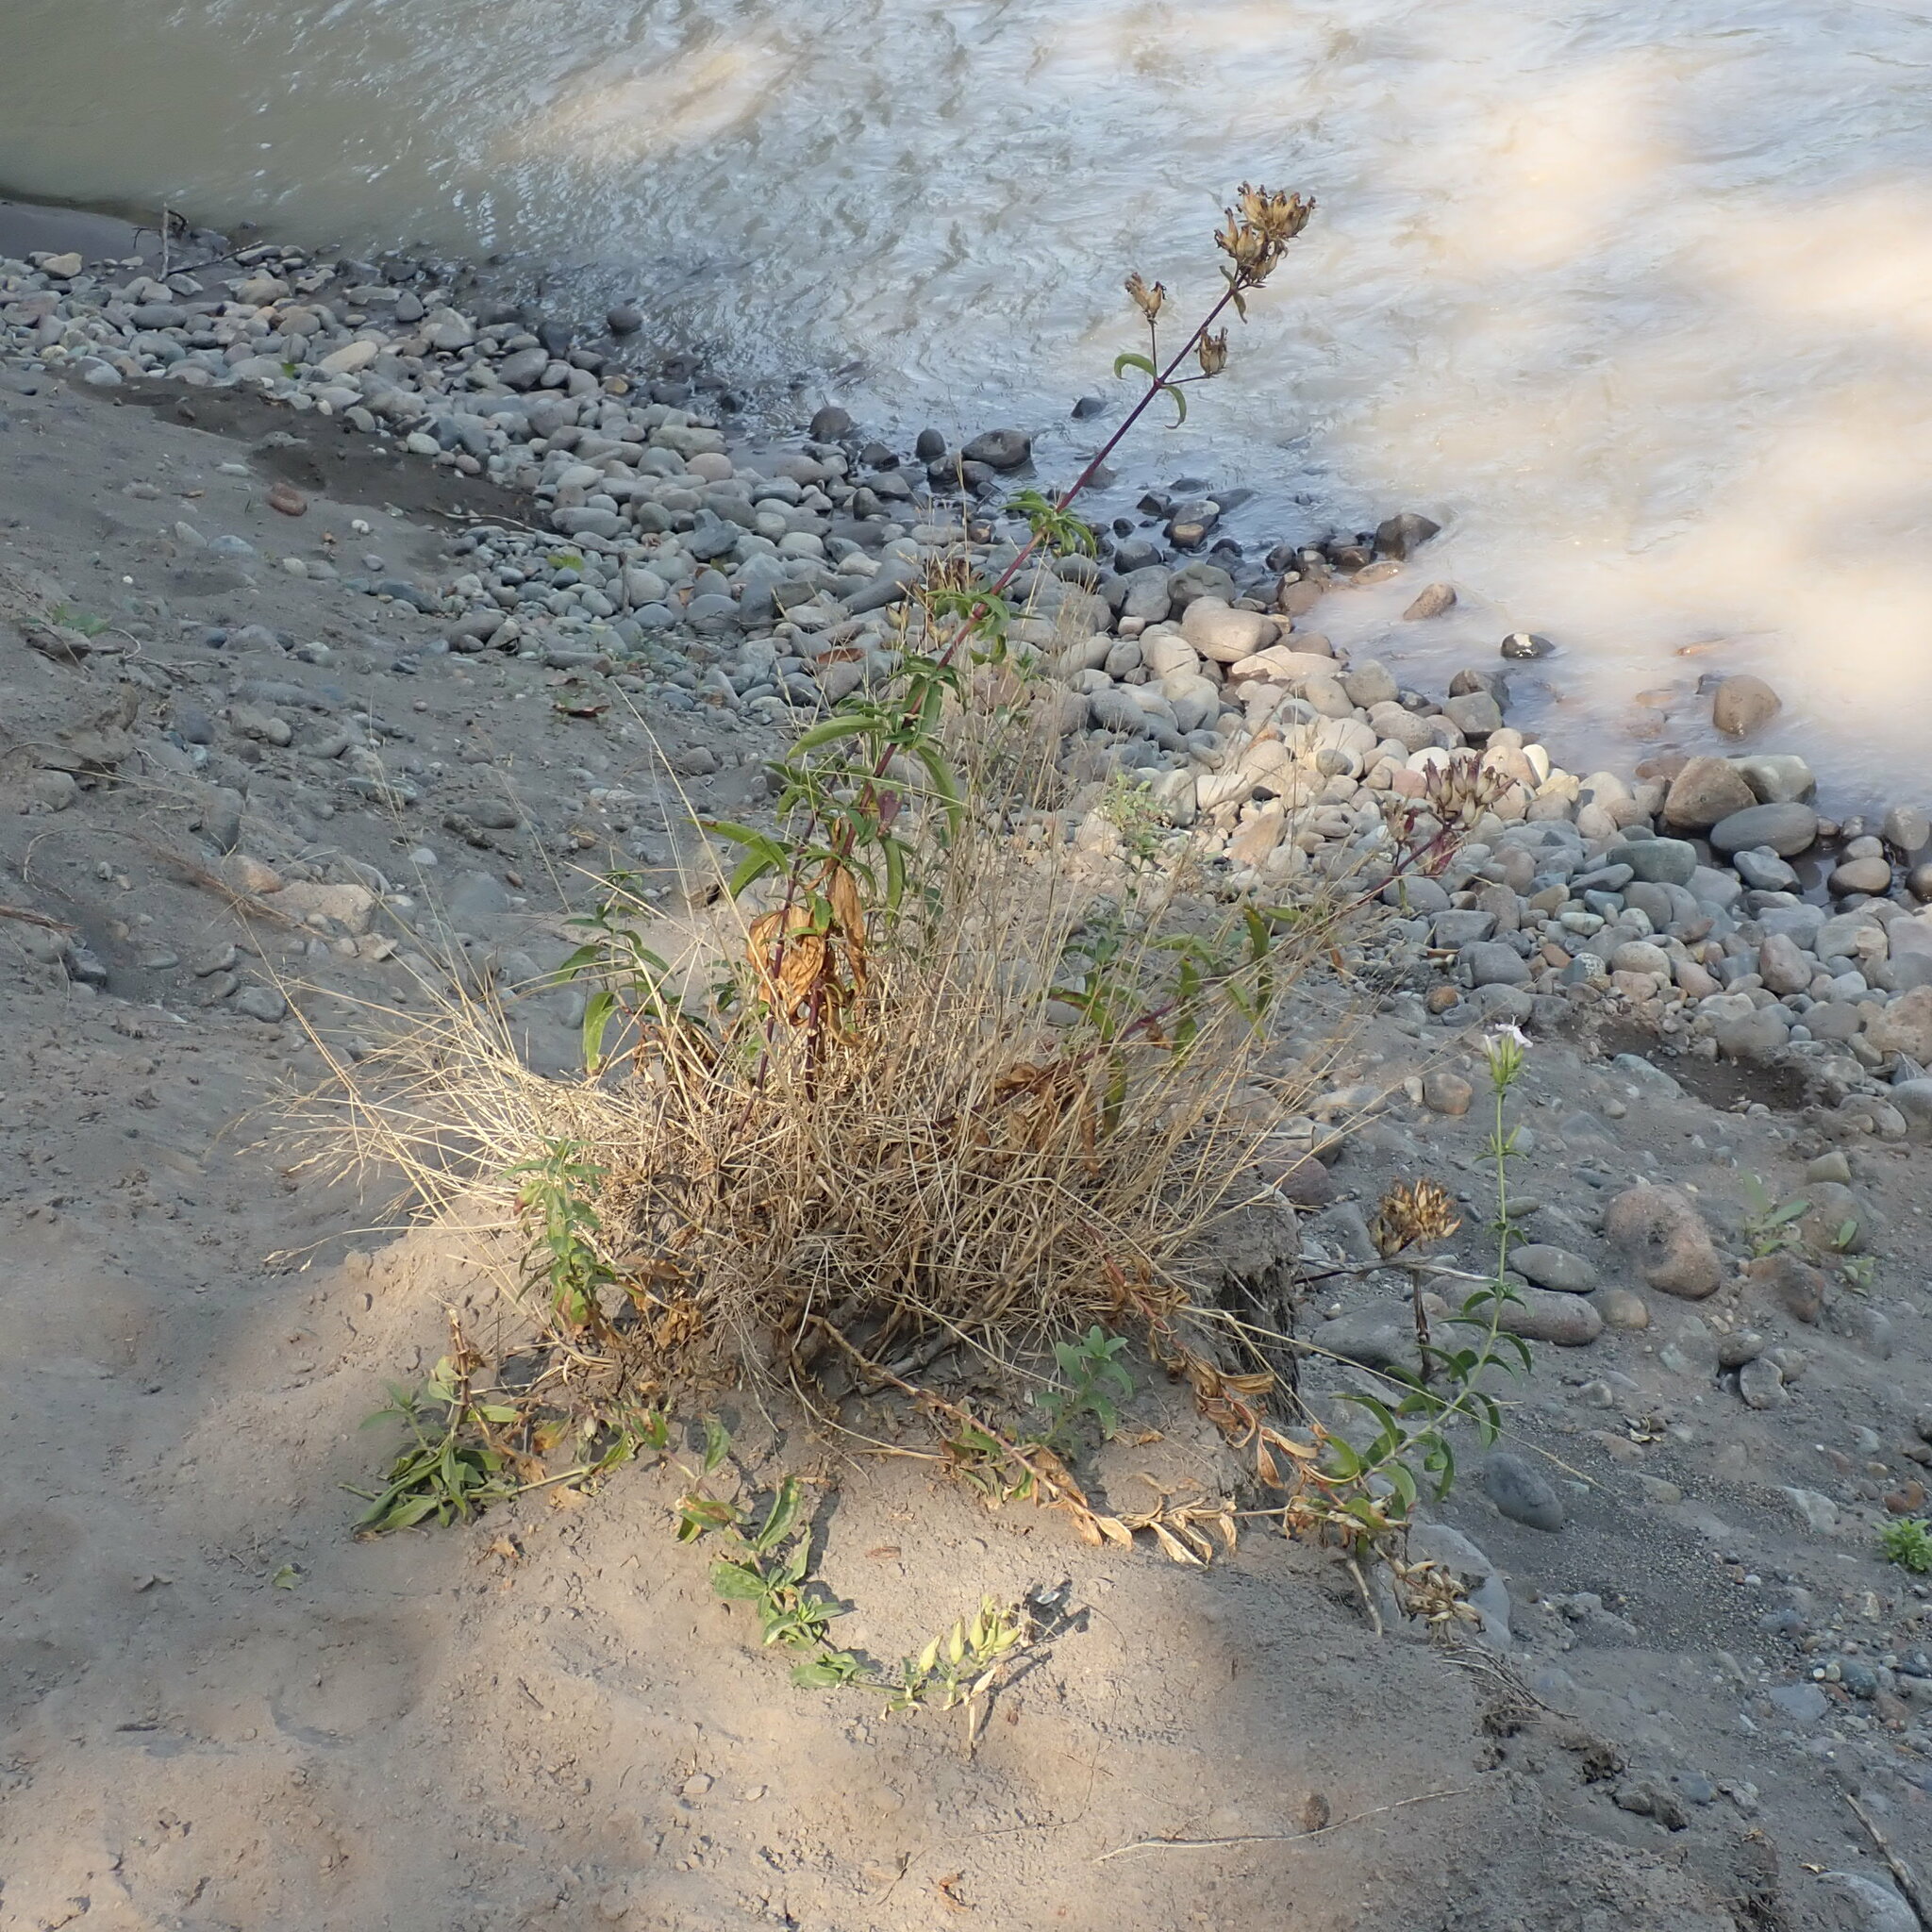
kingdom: Plantae
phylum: Tracheophyta
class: Magnoliopsida
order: Caryophyllales
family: Caryophyllaceae
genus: Saponaria
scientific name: Saponaria officinalis
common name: Soapwort
